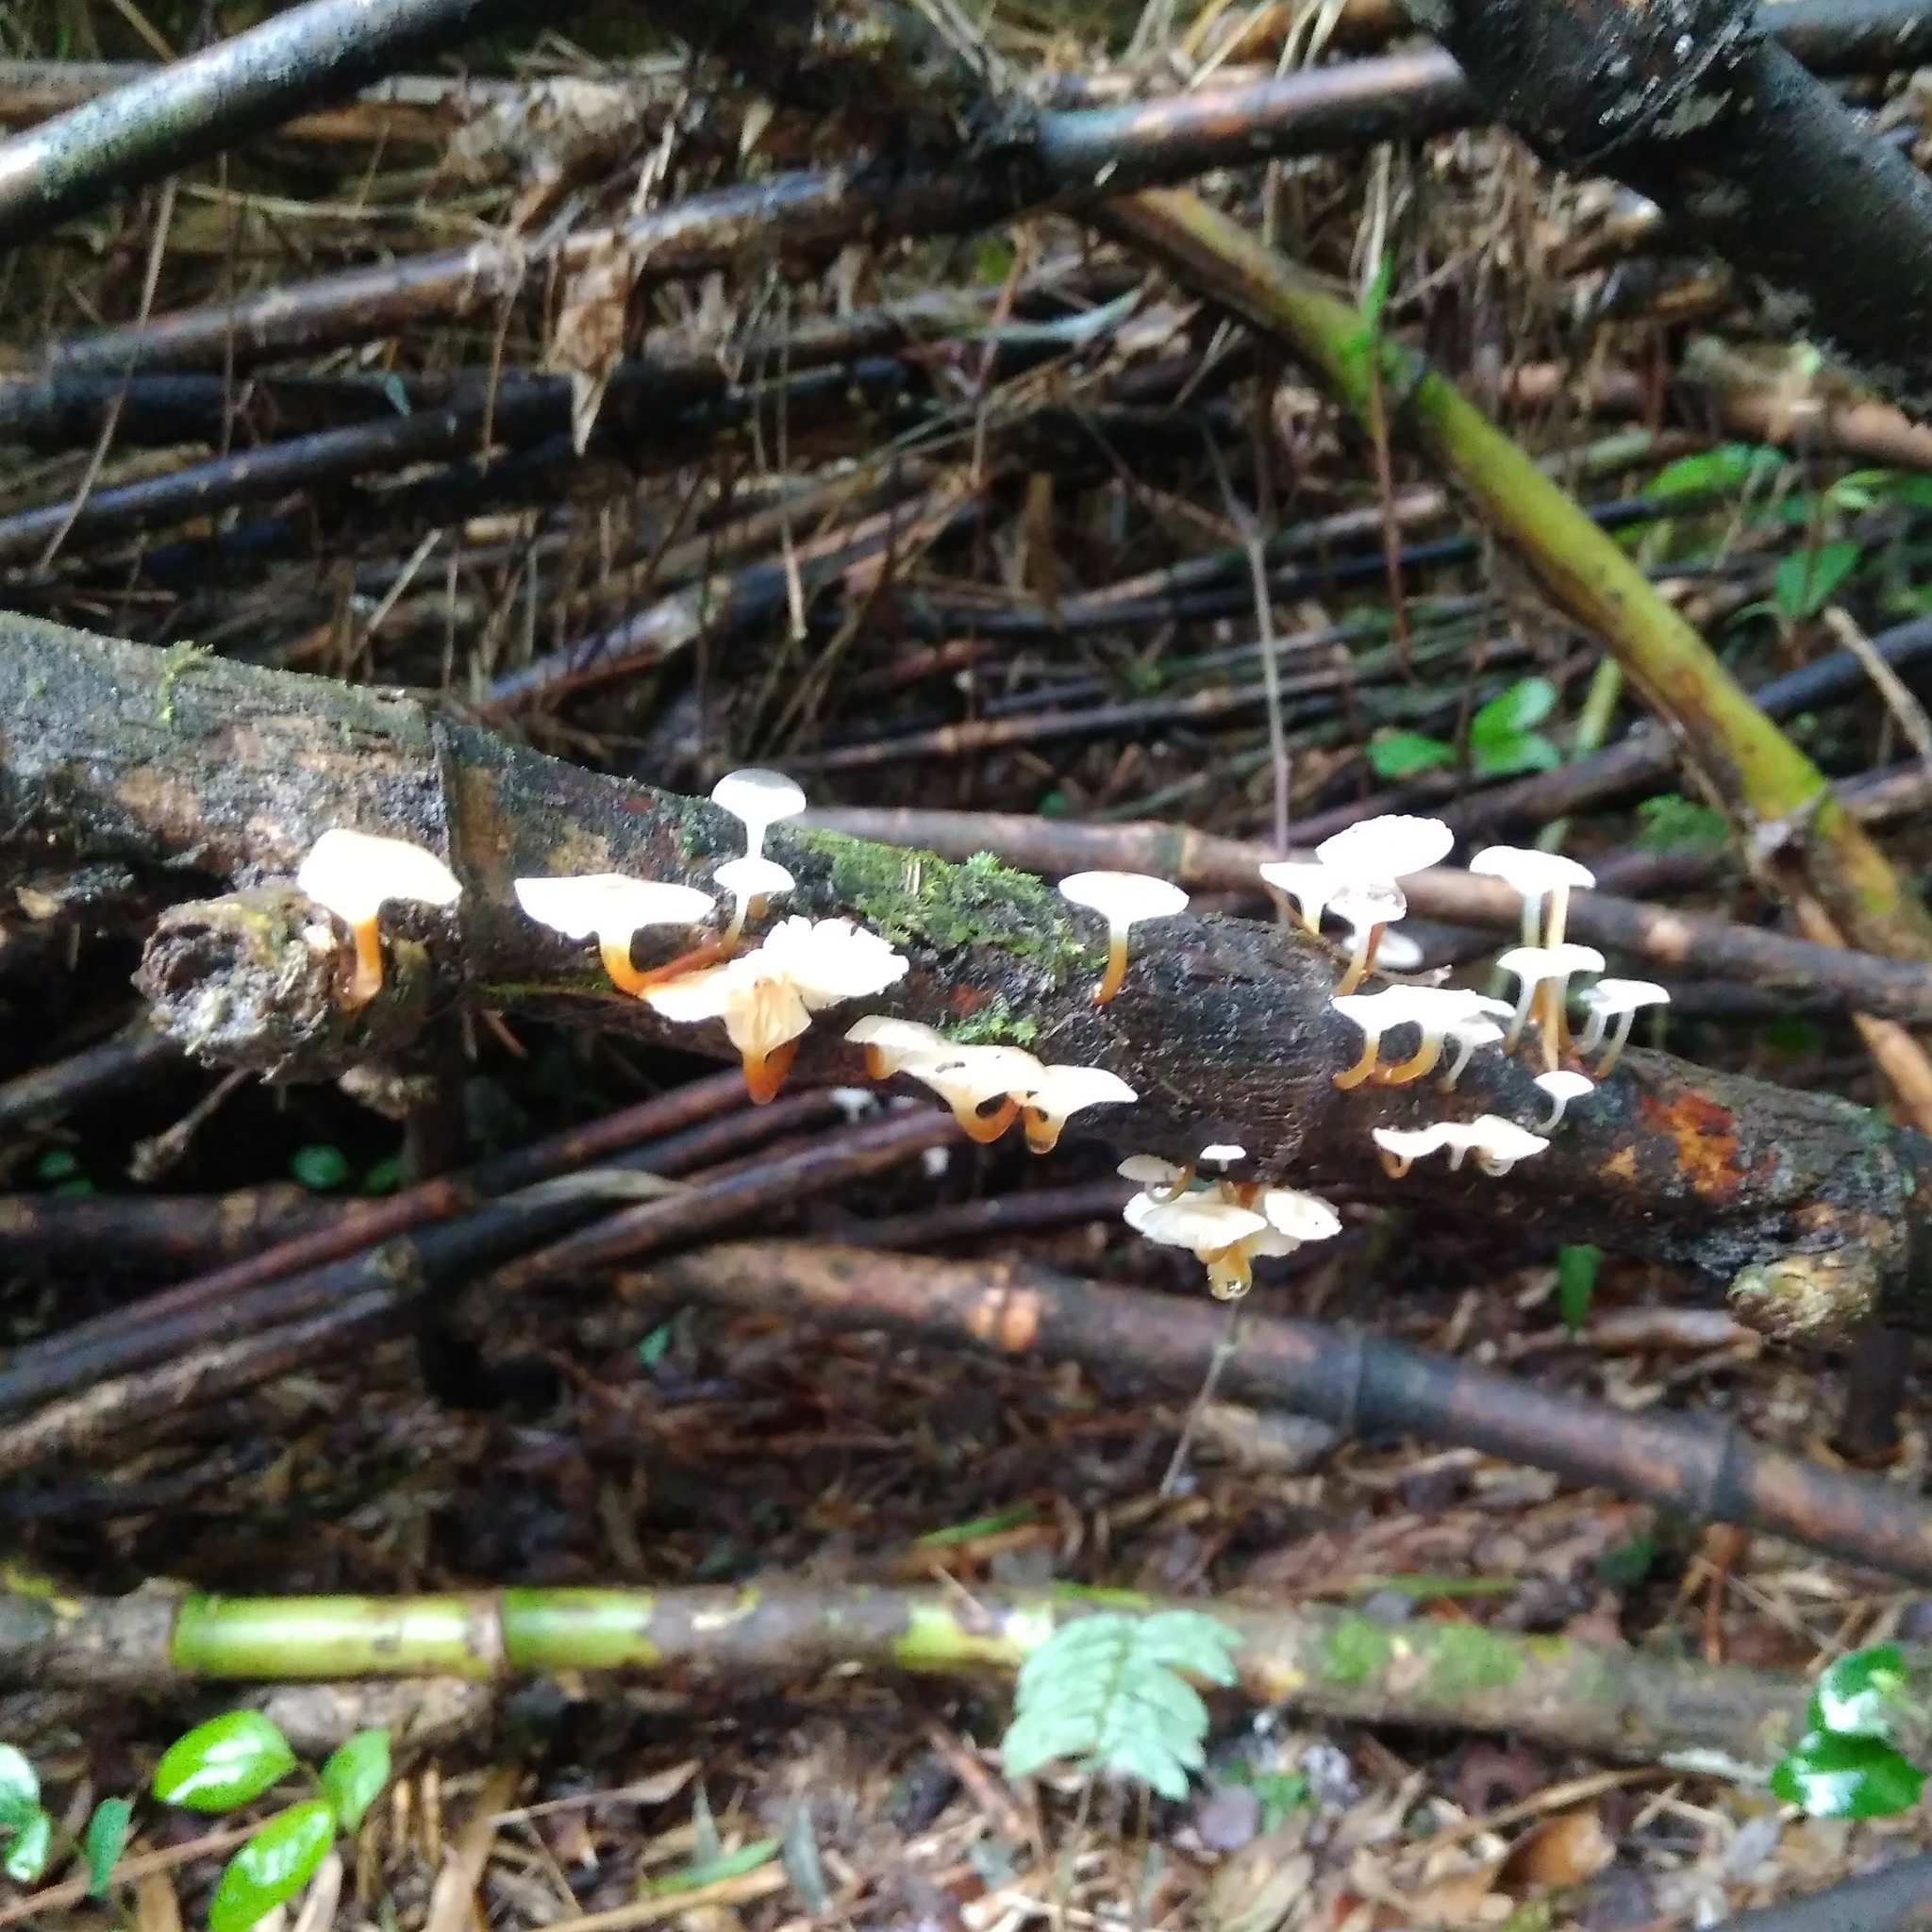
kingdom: Fungi
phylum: Basidiomycota
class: Agaricomycetes
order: Agaricales
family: Mycenaceae
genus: Mycena
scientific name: Mycena subulifera
